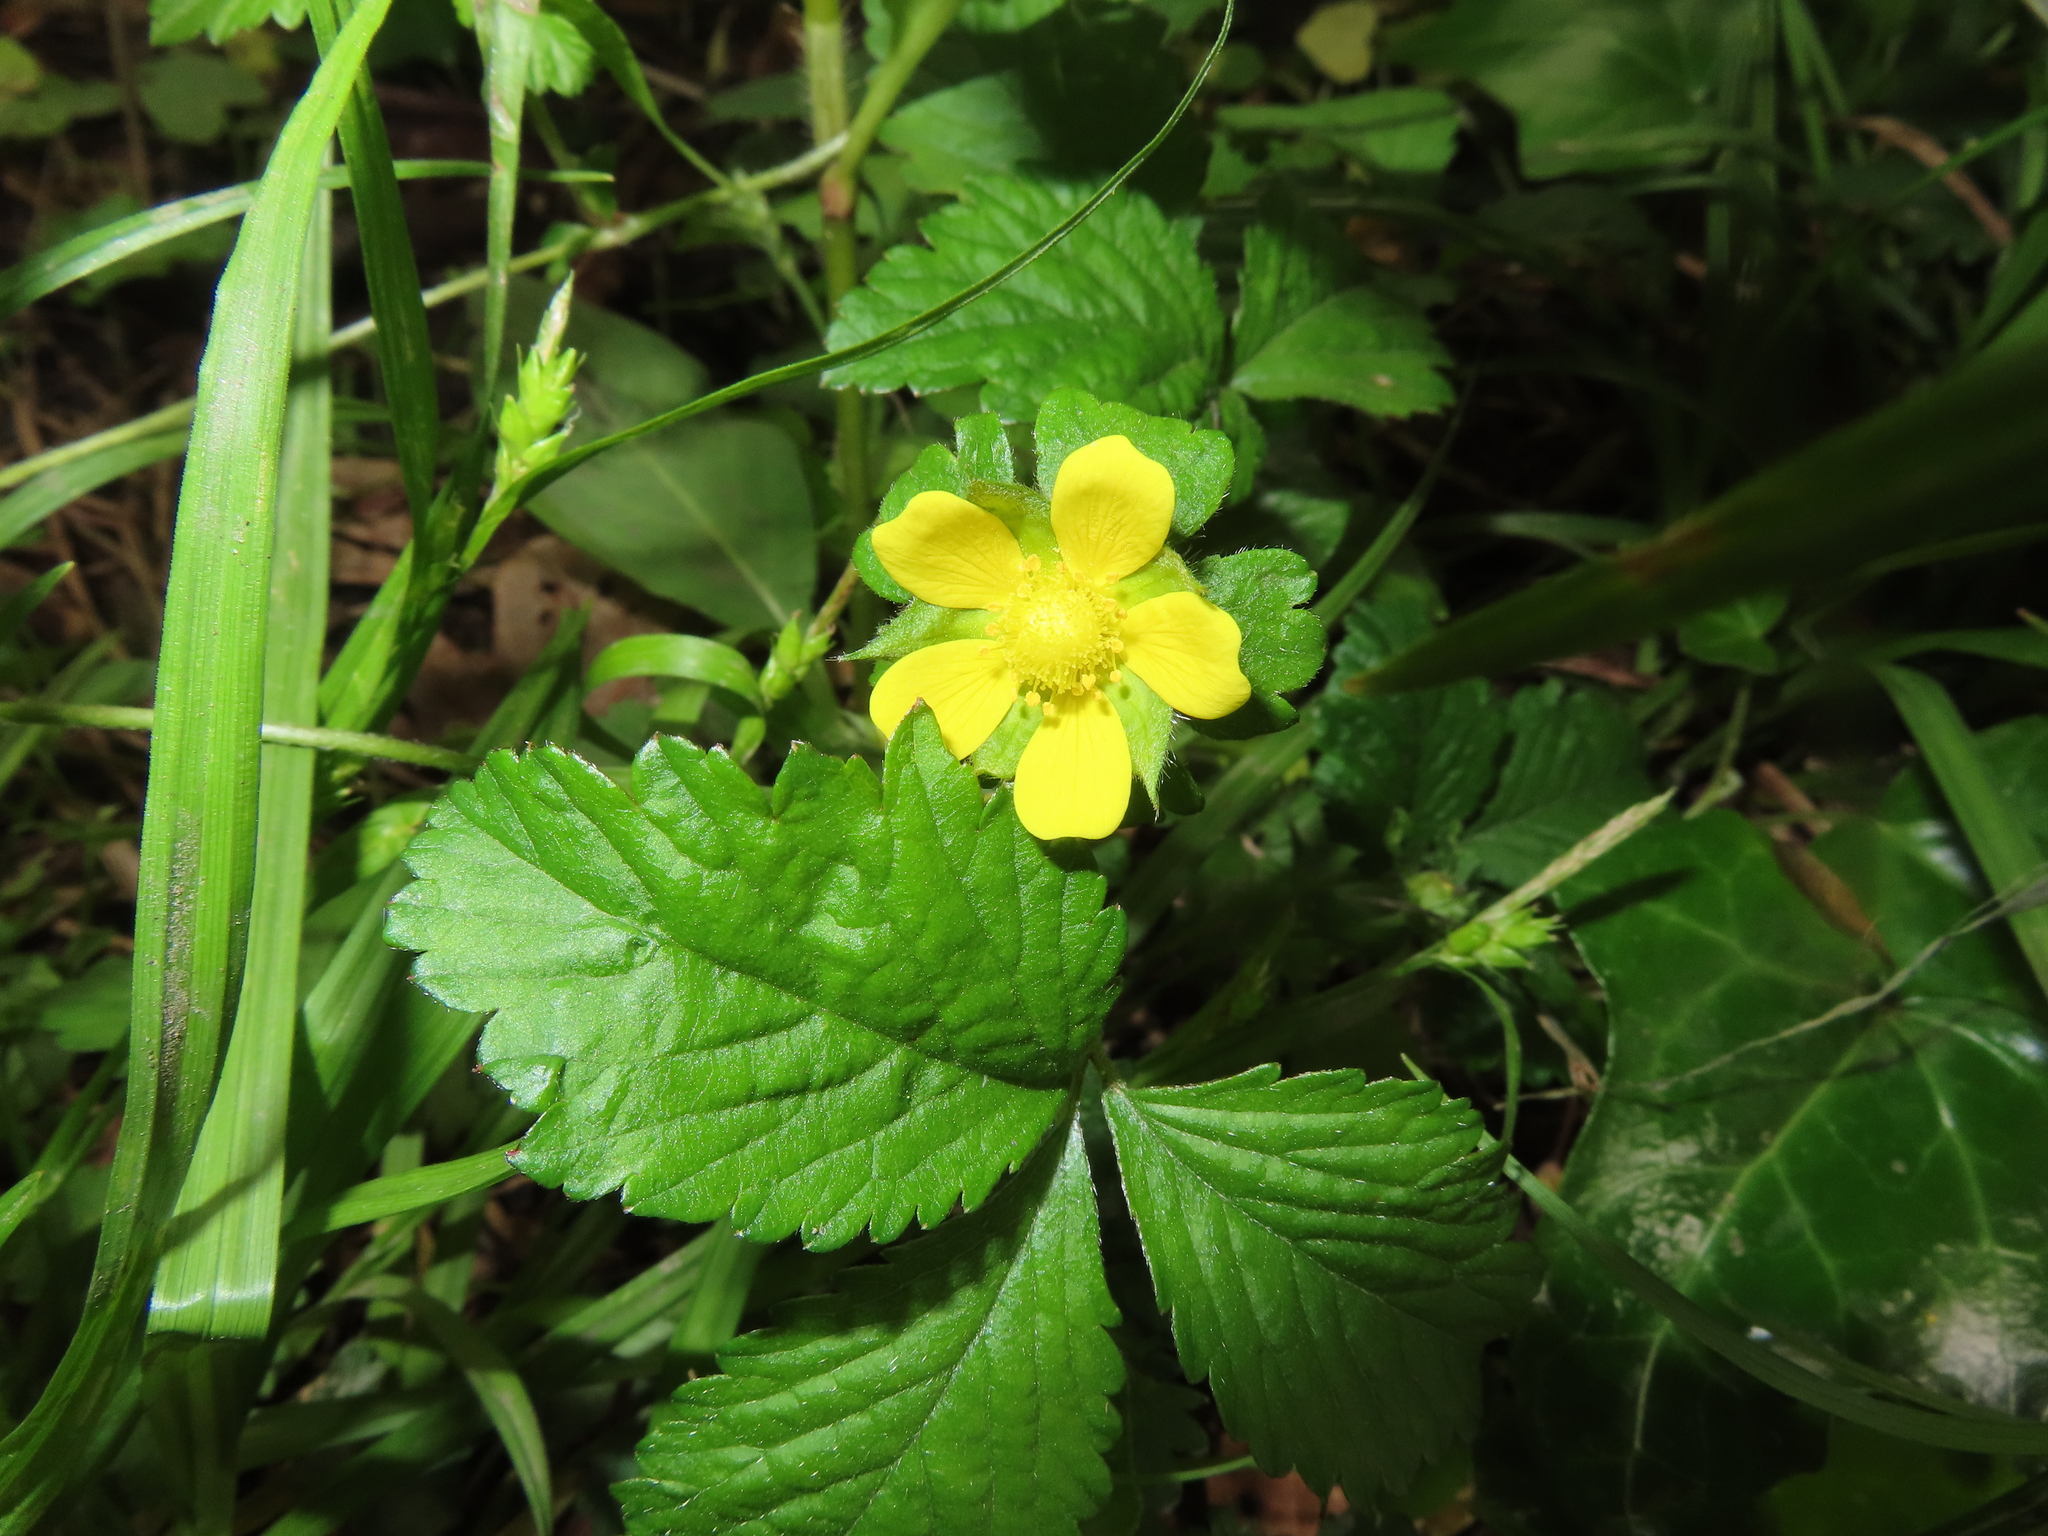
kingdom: Plantae
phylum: Tracheophyta
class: Magnoliopsida
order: Rosales
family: Rosaceae
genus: Potentilla
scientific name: Potentilla indica
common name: Yellow-flowered strawberry
